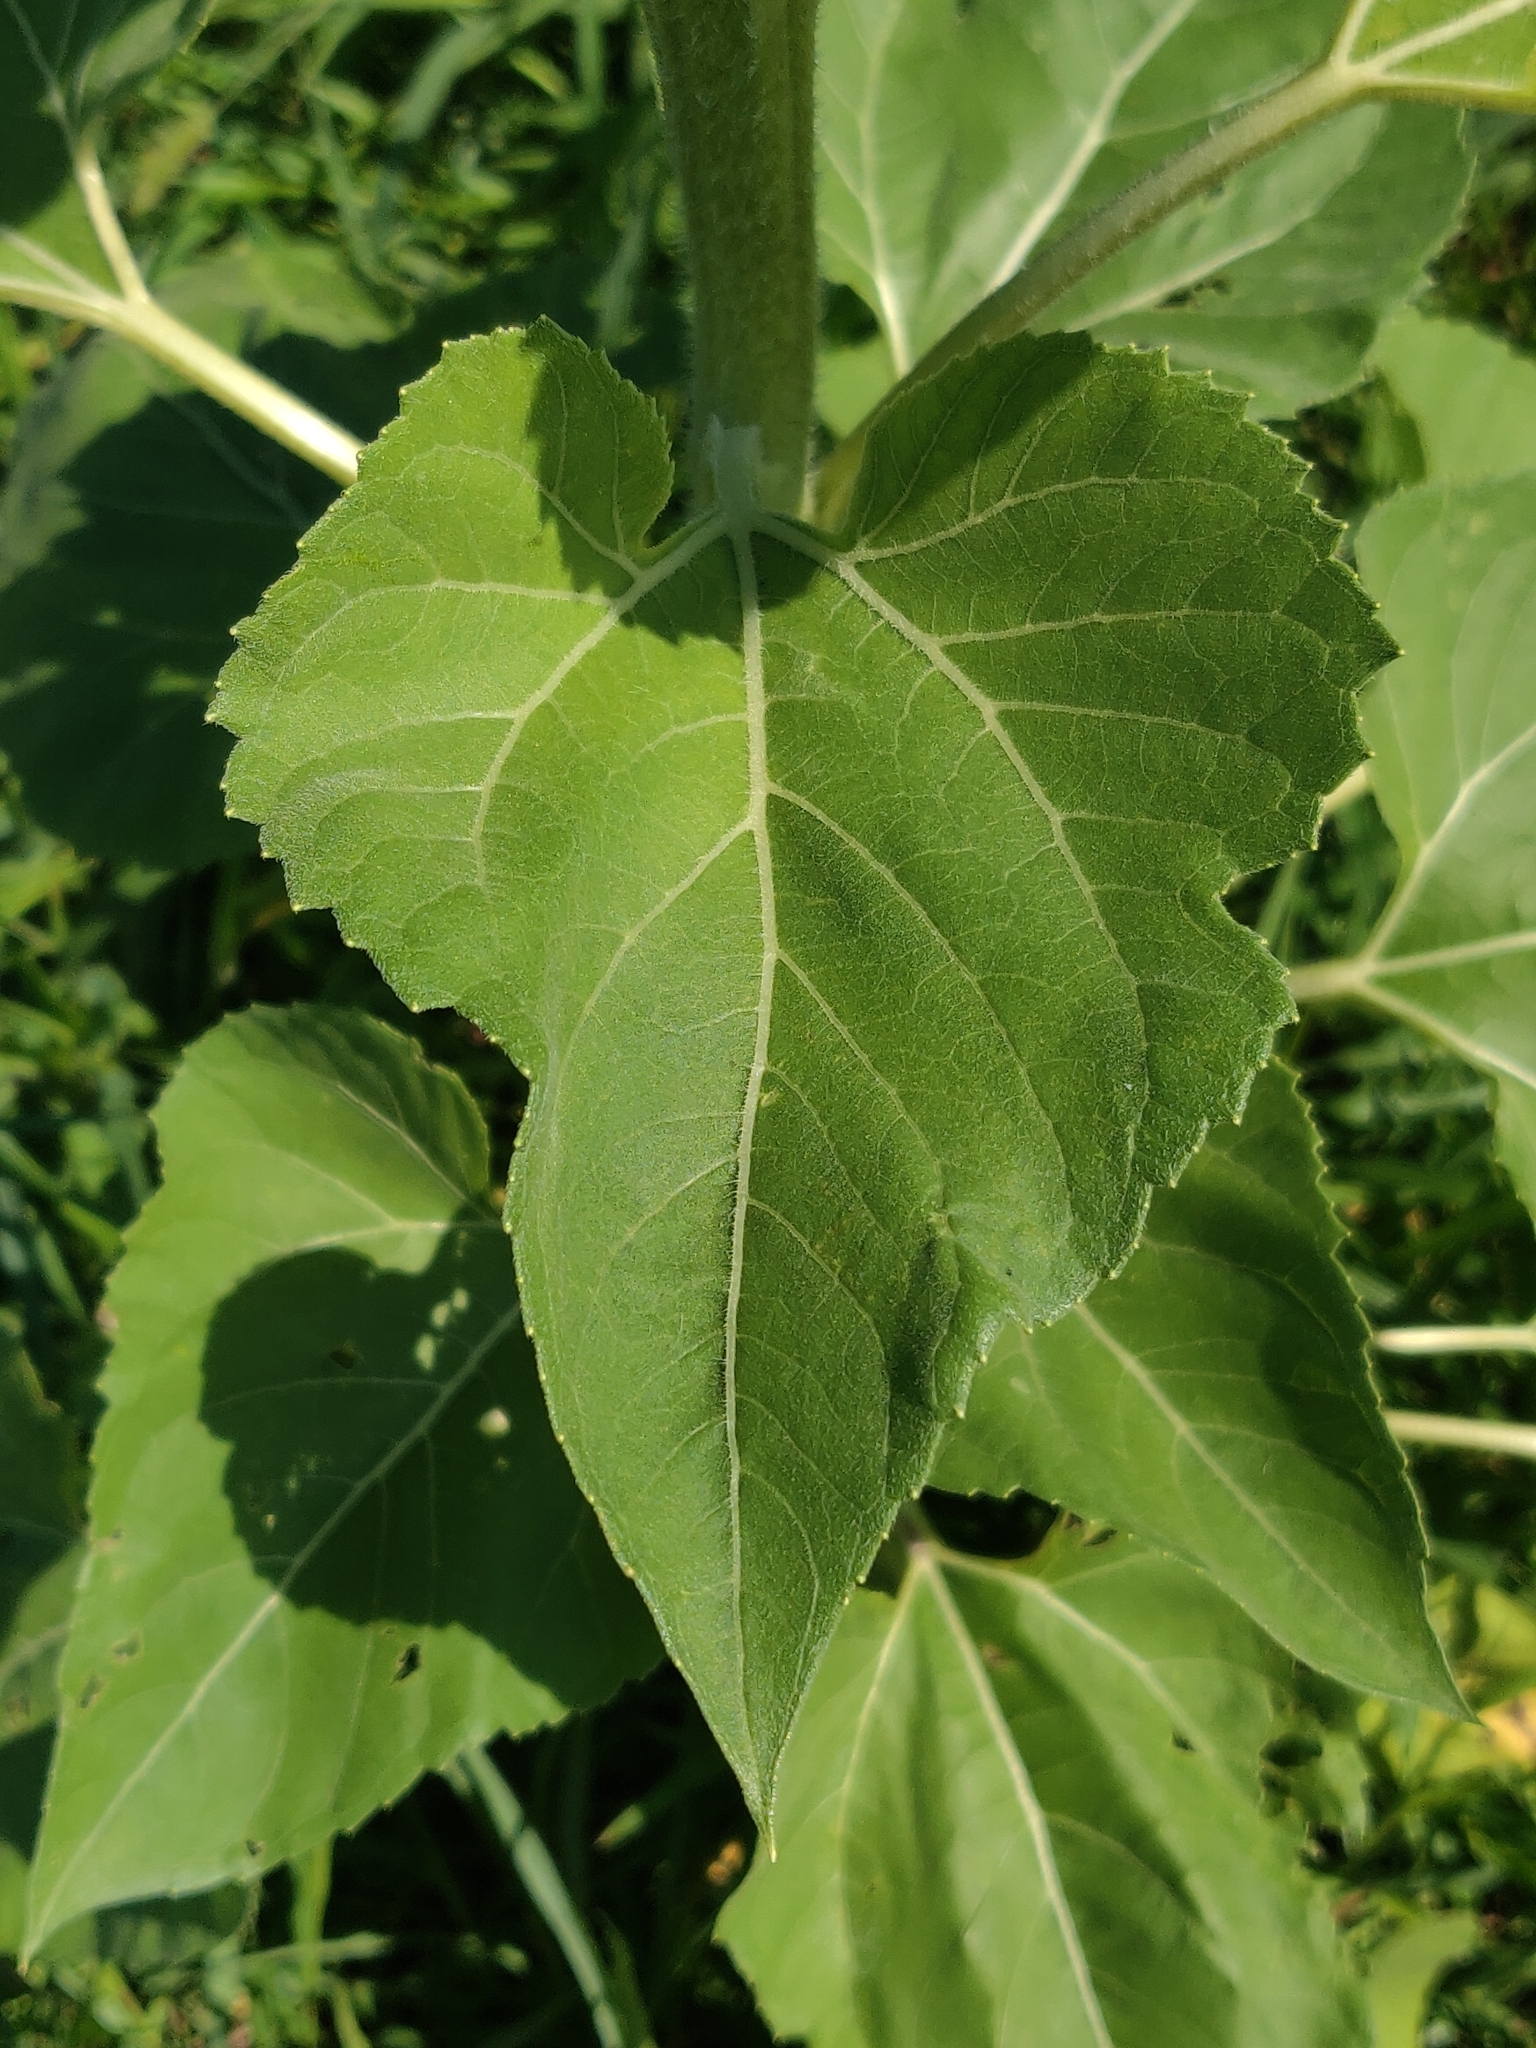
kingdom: Plantae
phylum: Tracheophyta
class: Magnoliopsida
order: Asterales
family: Asteraceae
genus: Helianthus
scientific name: Helianthus annuus
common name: Sunflower
